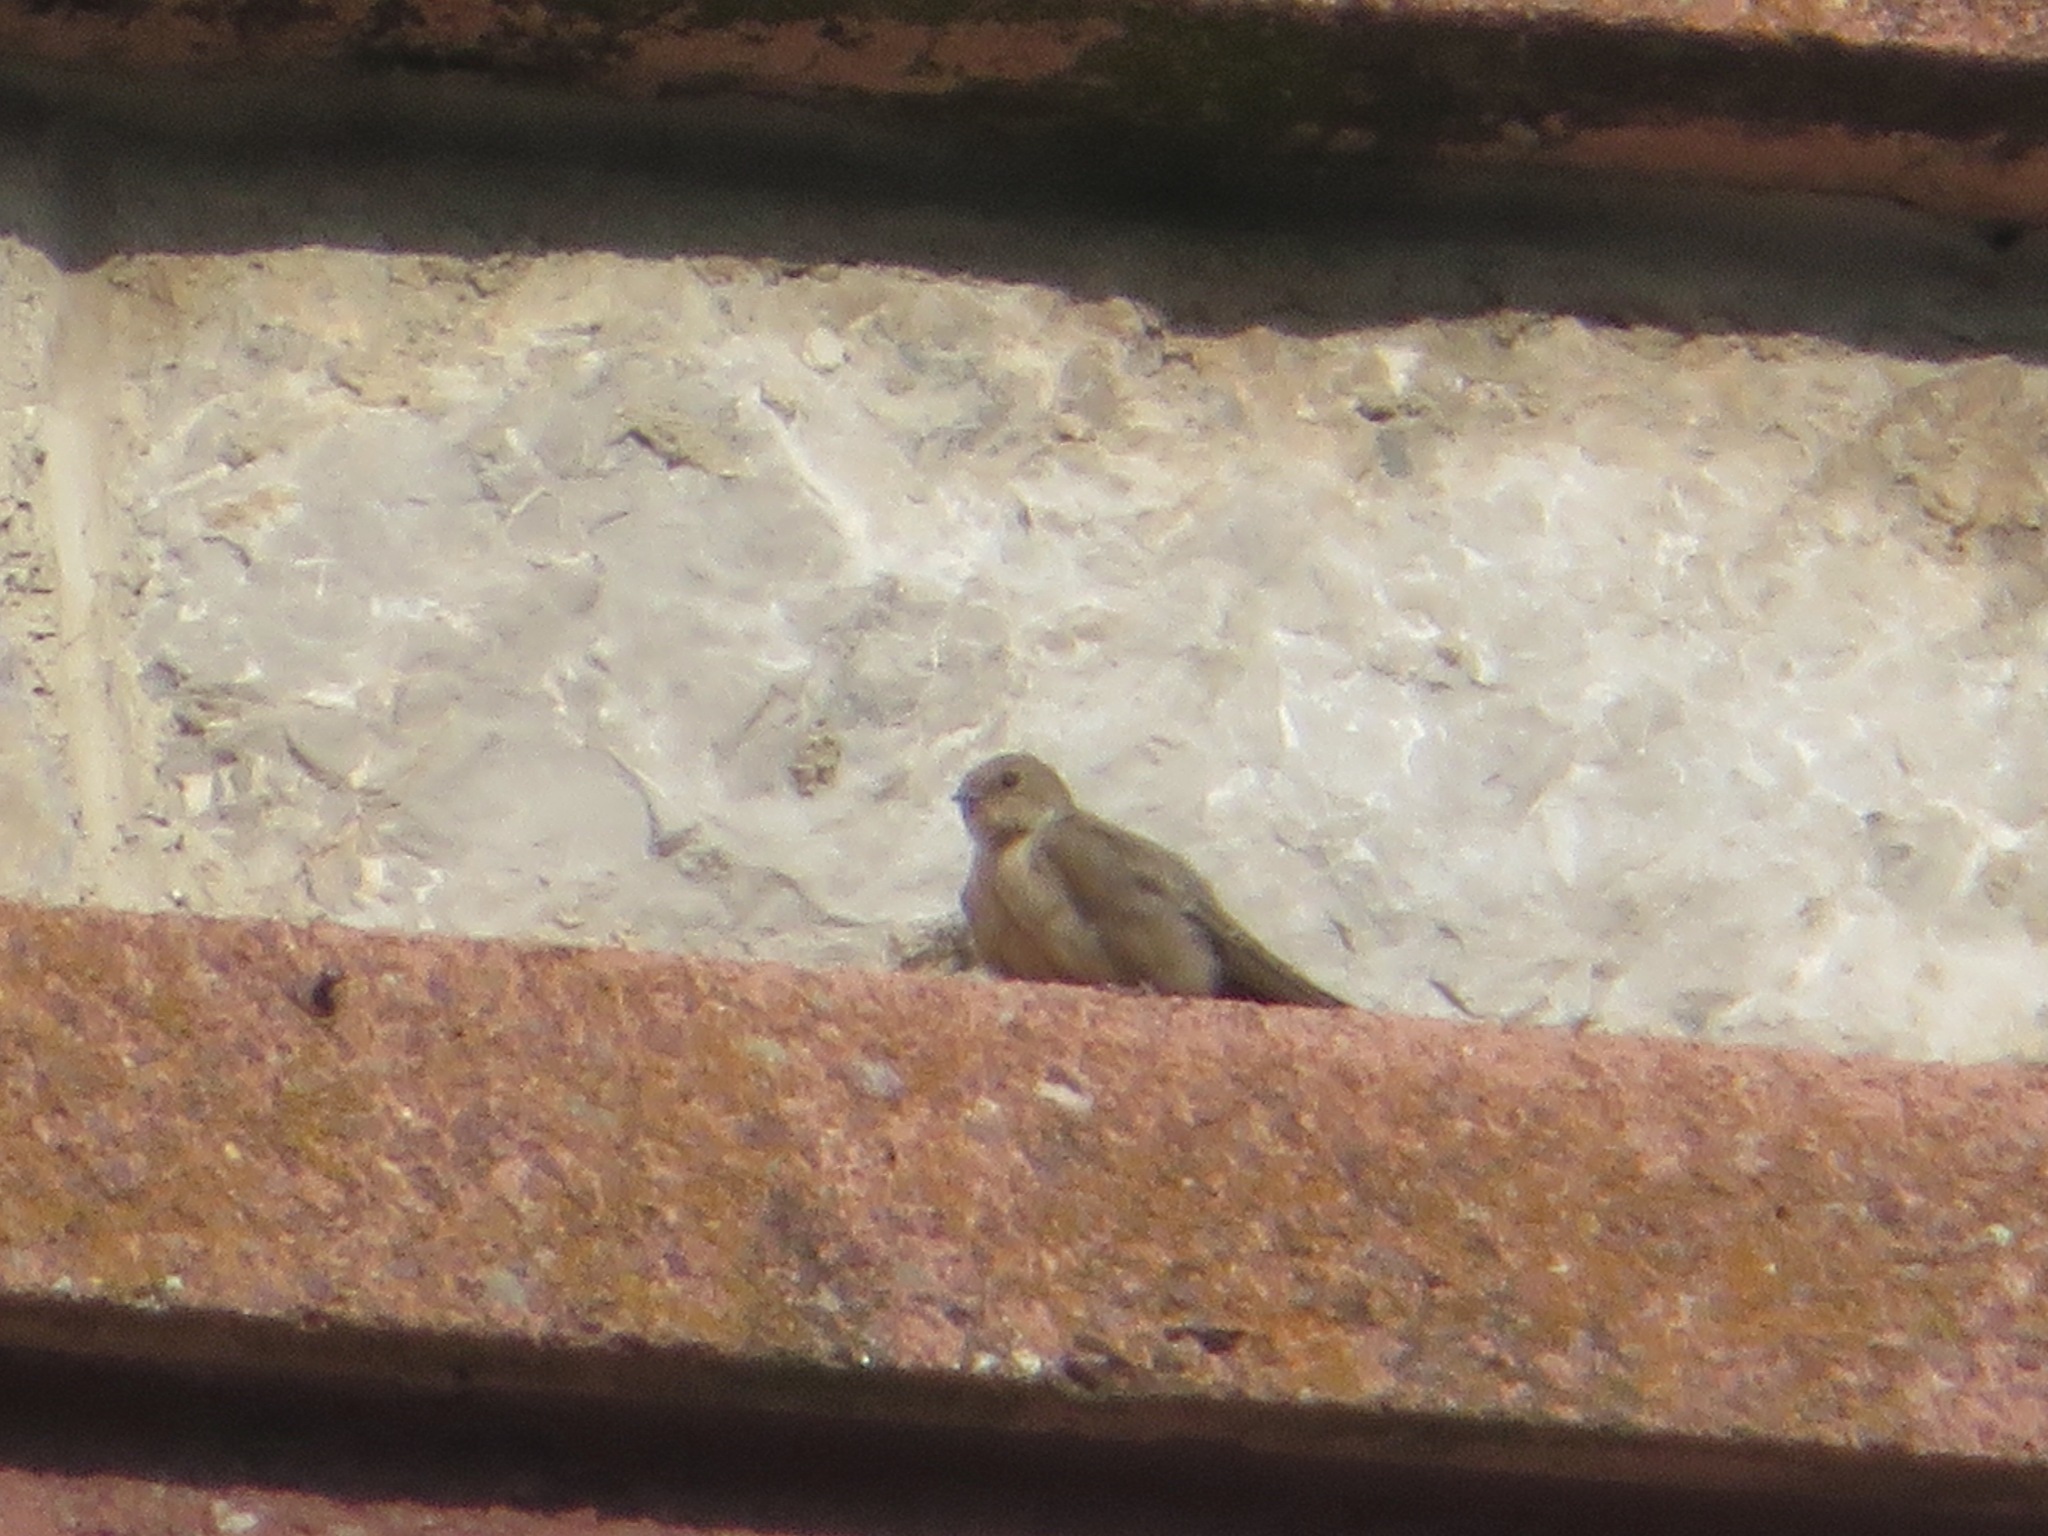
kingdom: Animalia
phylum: Chordata
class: Aves
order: Passeriformes
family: Hirundinidae
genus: Ptyonoprogne
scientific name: Ptyonoprogne rupestris
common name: Eurasian crag martin
